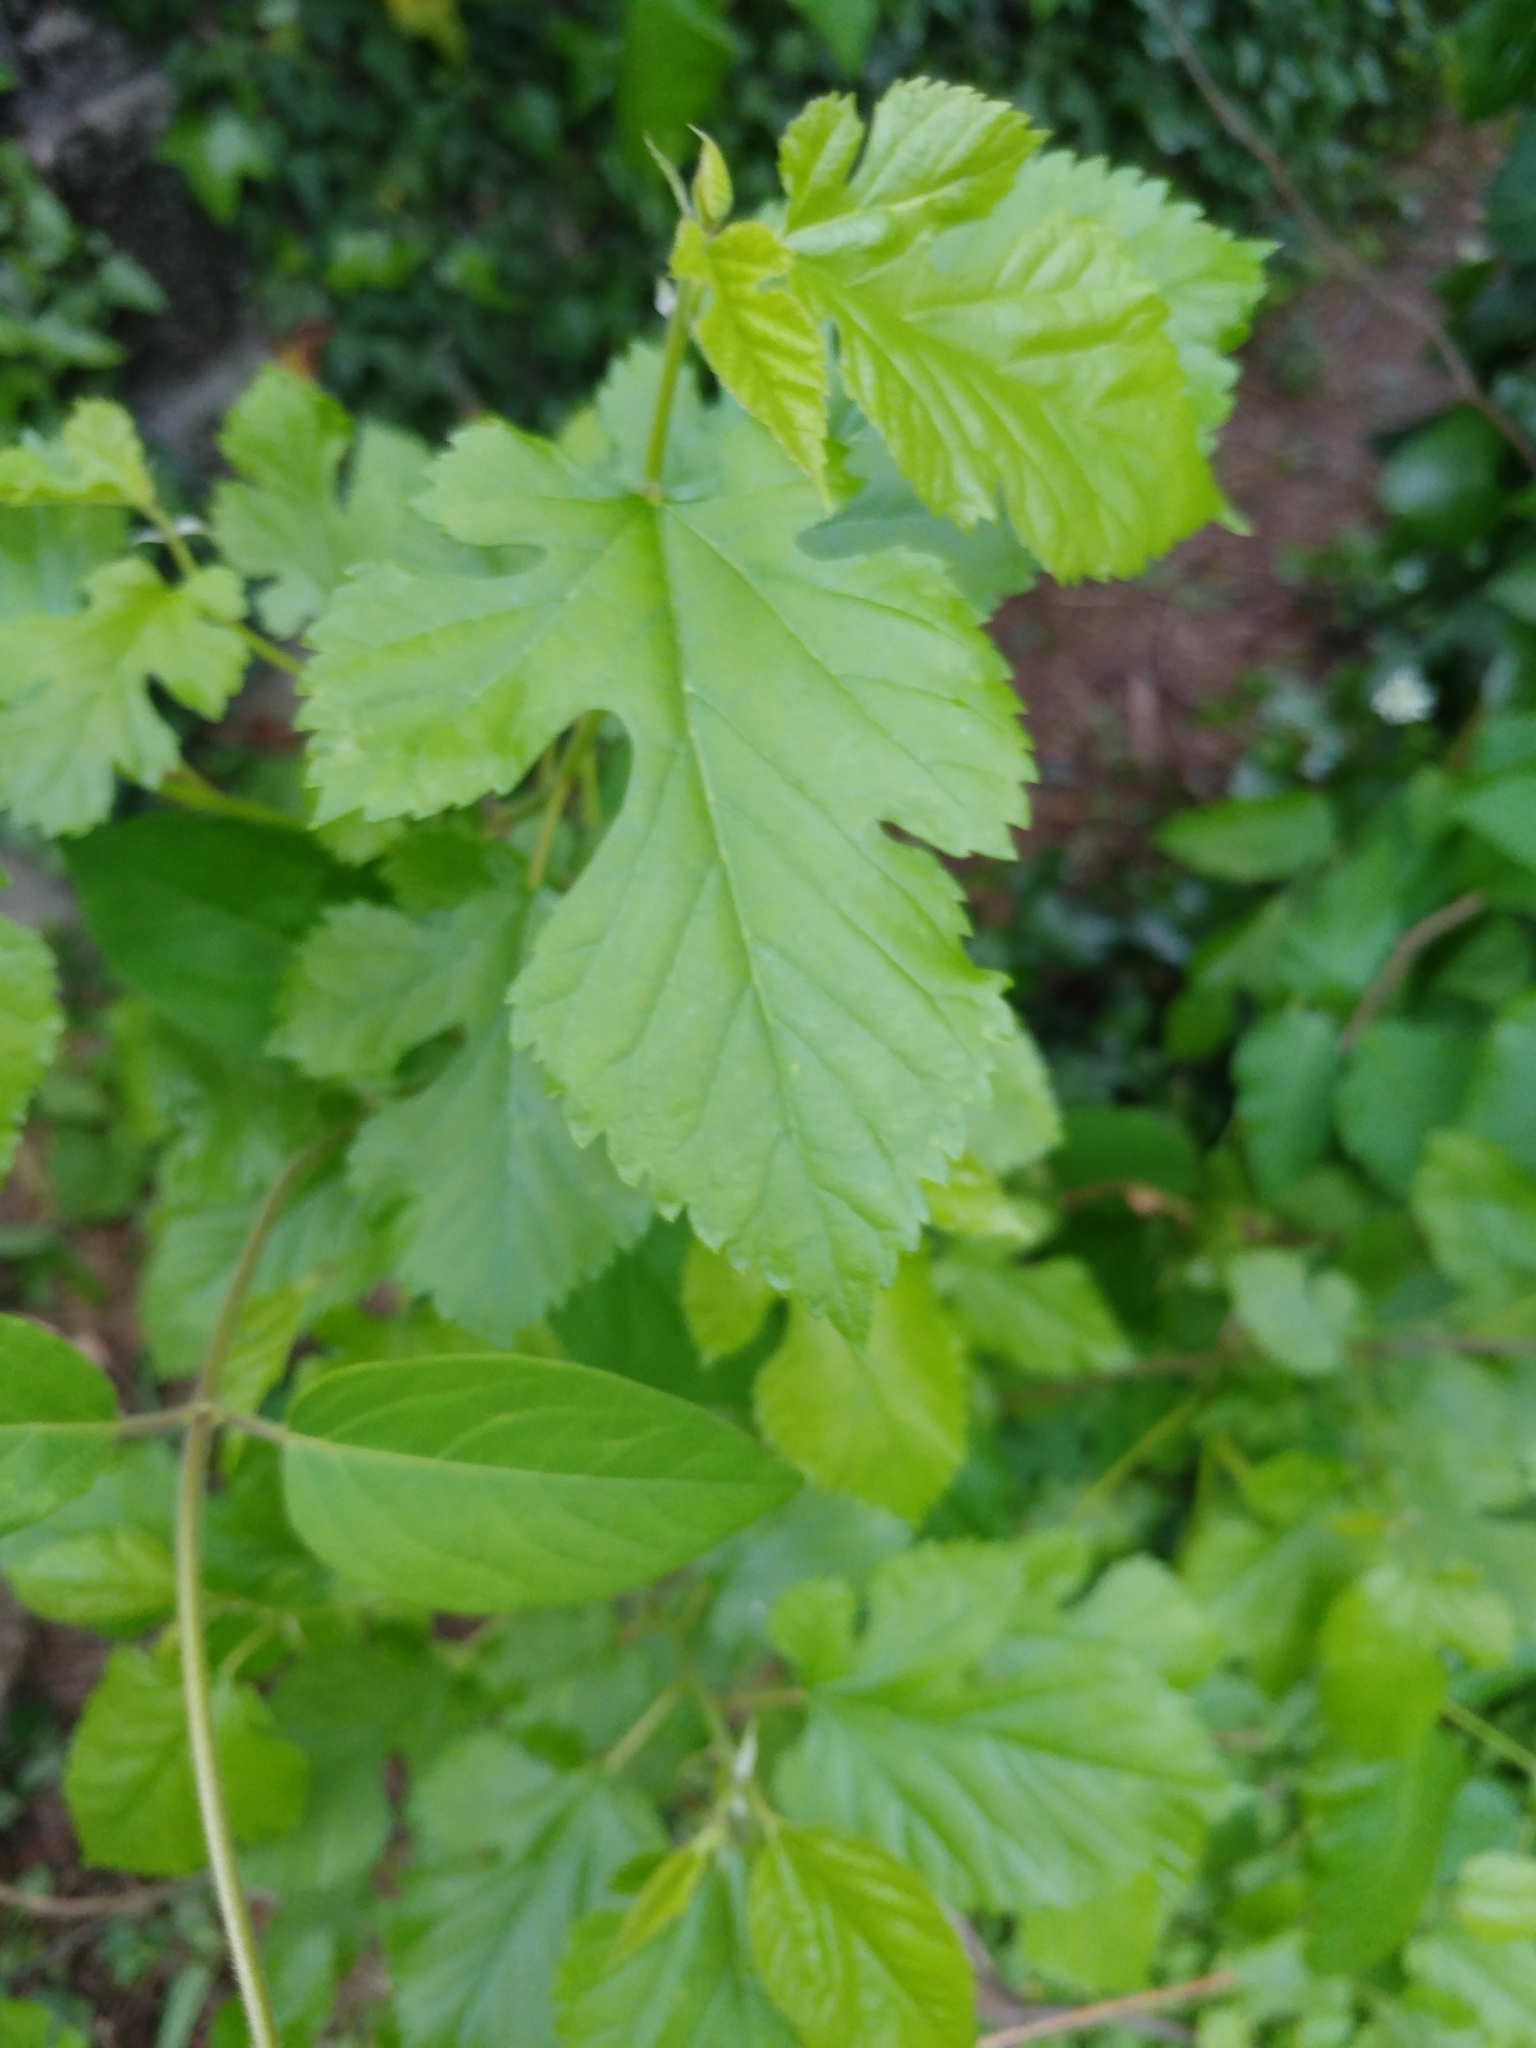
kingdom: Plantae
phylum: Tracheophyta
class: Magnoliopsida
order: Rosales
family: Moraceae
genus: Morus
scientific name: Morus alba
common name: White mulberry
